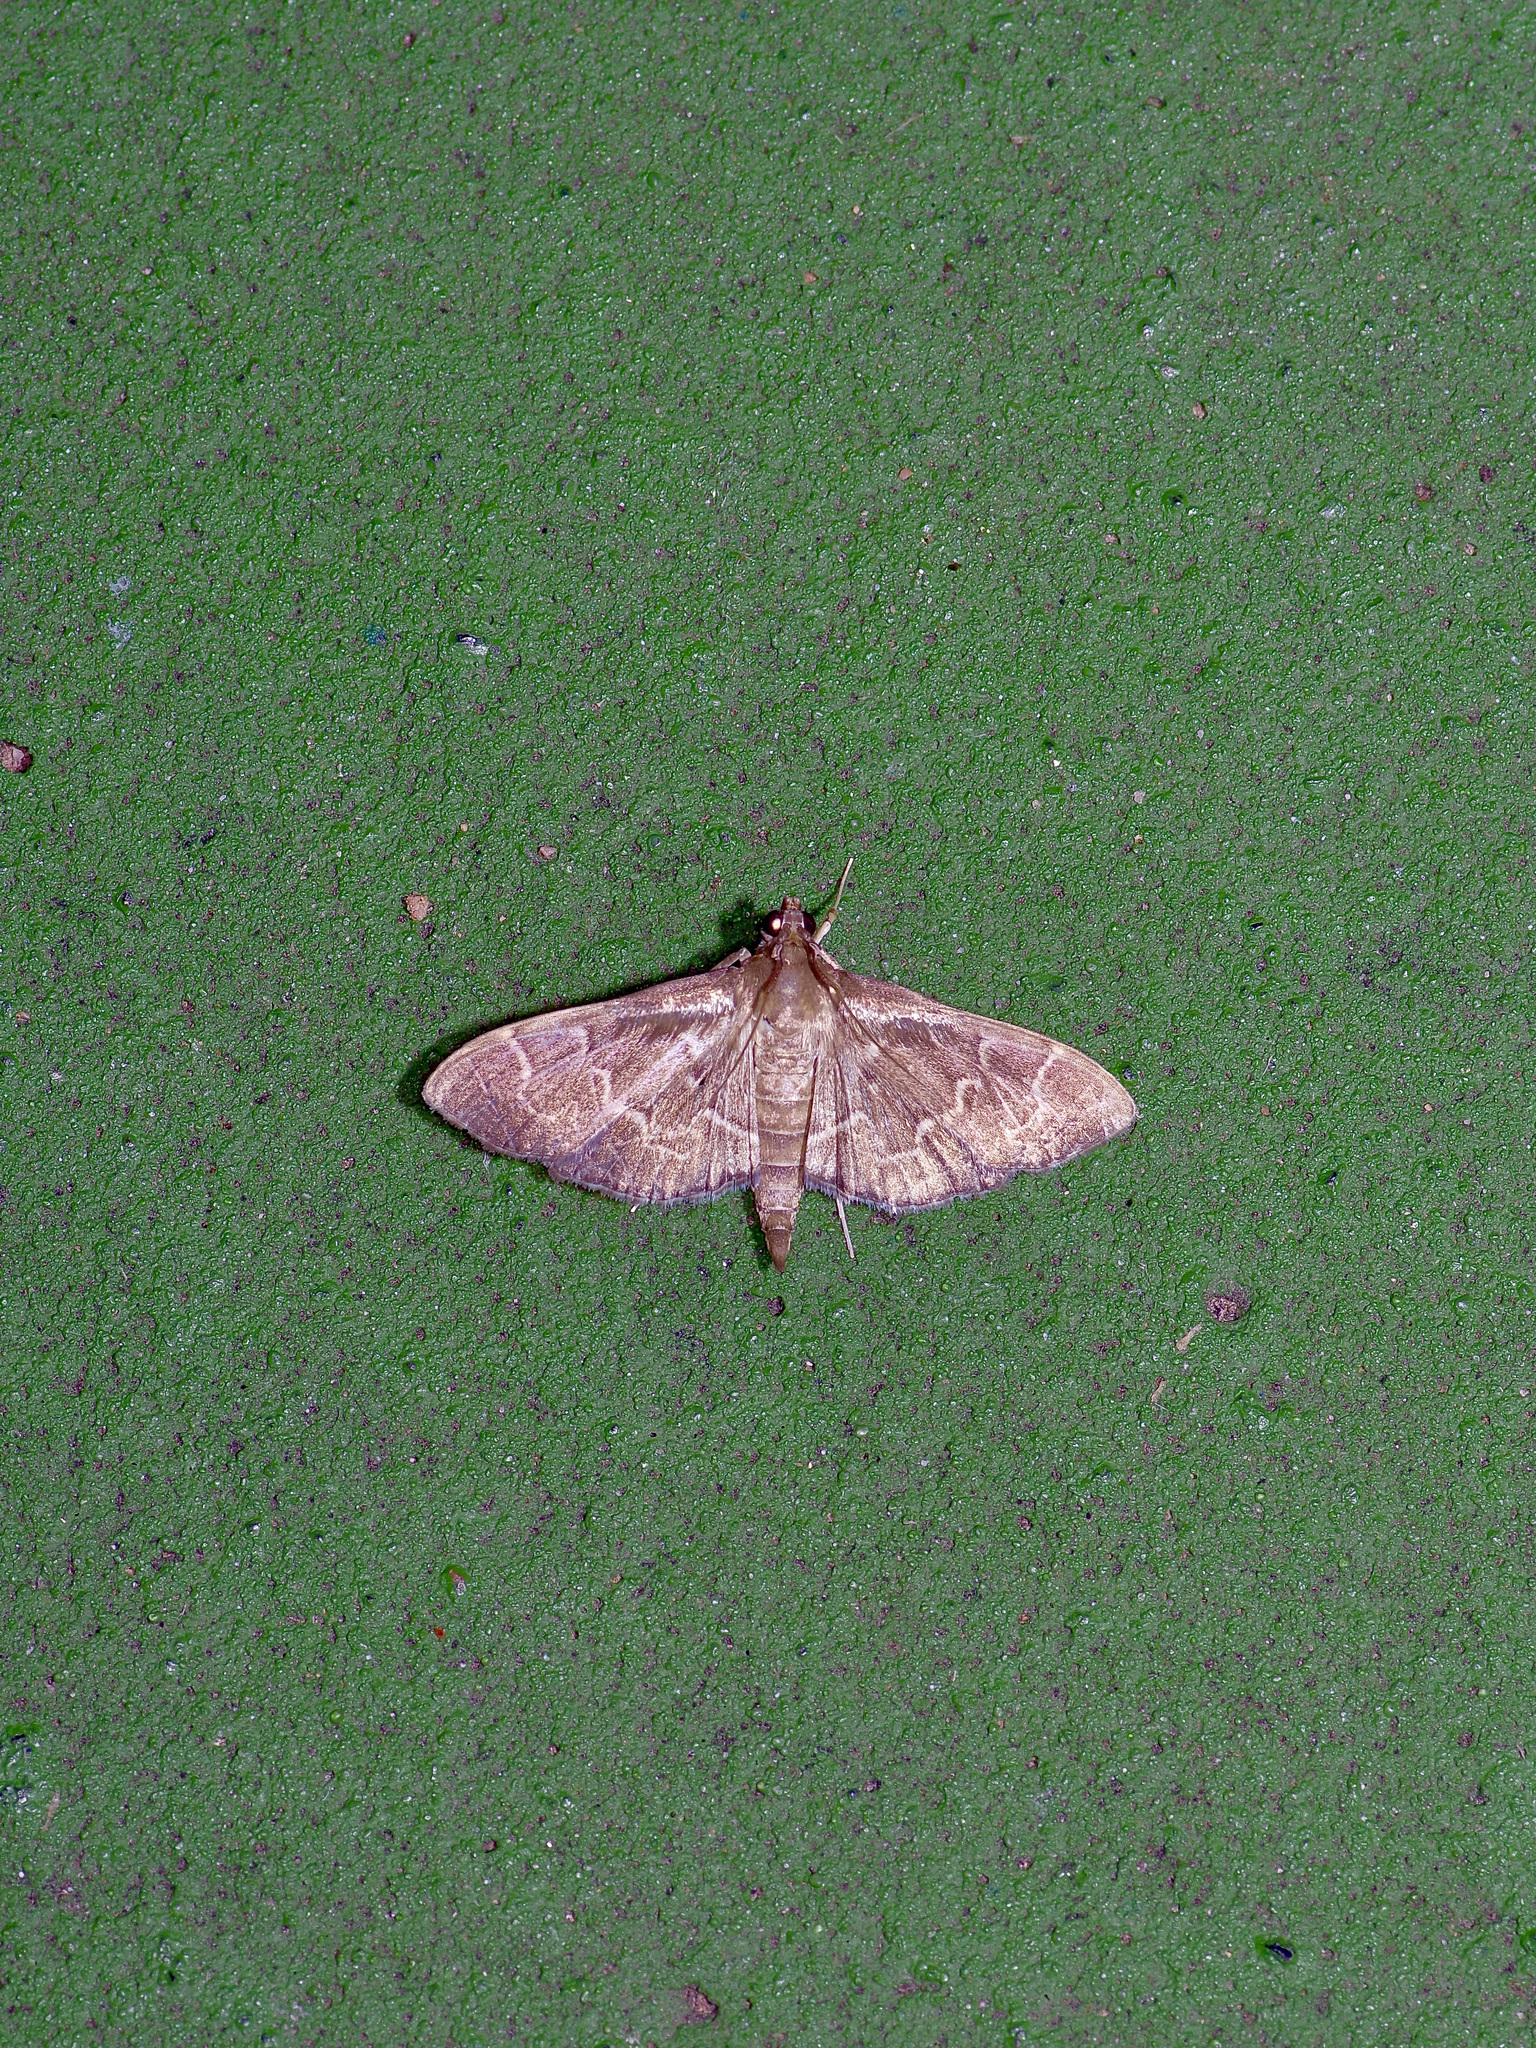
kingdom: Animalia
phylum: Arthropoda
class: Insecta
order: Lepidoptera
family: Crambidae
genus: Pilocrocis
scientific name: Pilocrocis ramentalis
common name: Scraped pilocrocis
